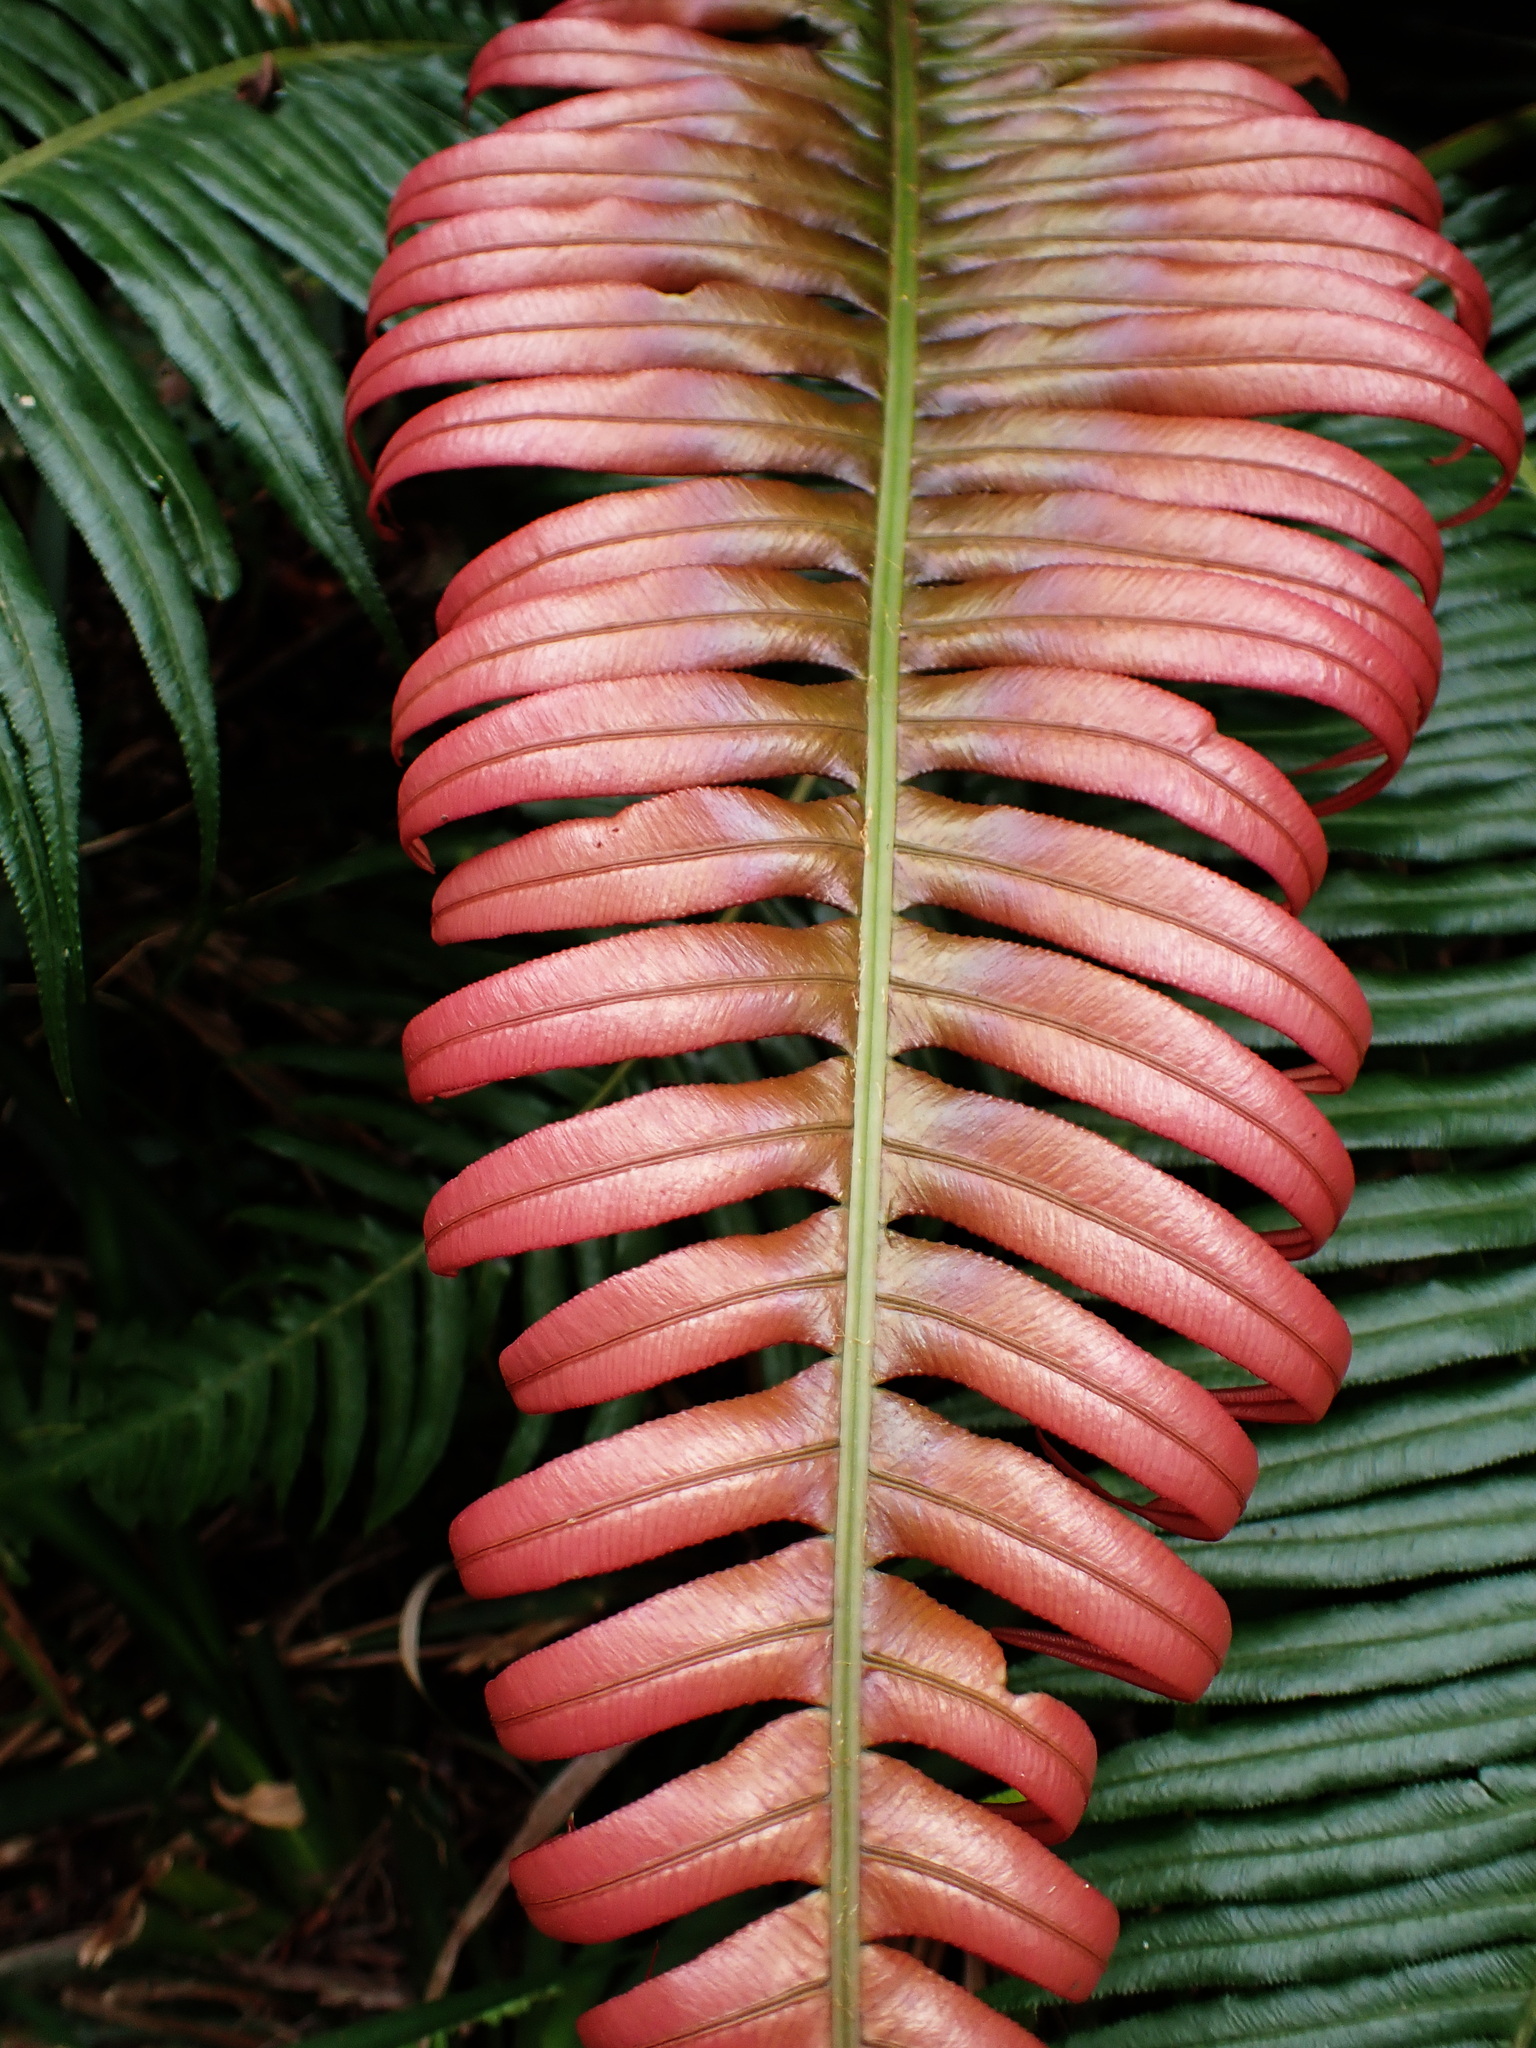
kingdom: Plantae
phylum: Tracheophyta
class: Polypodiopsida
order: Polypodiales
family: Blechnaceae
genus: Lomaridium
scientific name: Lomaridium attenuatum
